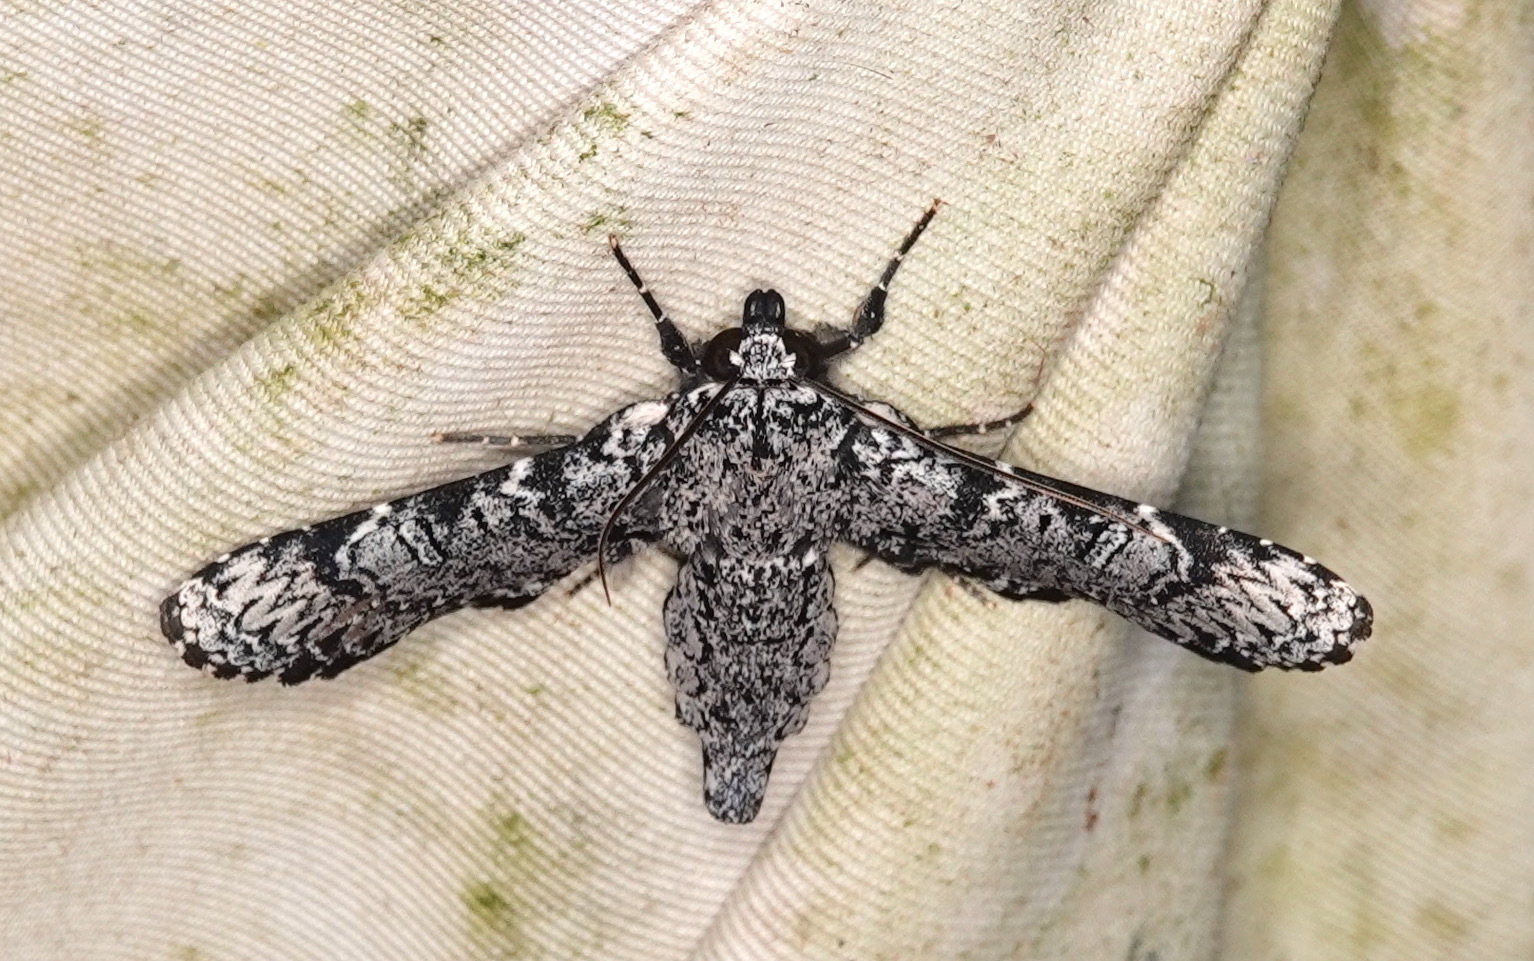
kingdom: Animalia
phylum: Arthropoda
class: Insecta
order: Lepidoptera
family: Euteliidae
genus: Anuga
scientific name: Anuga fida
